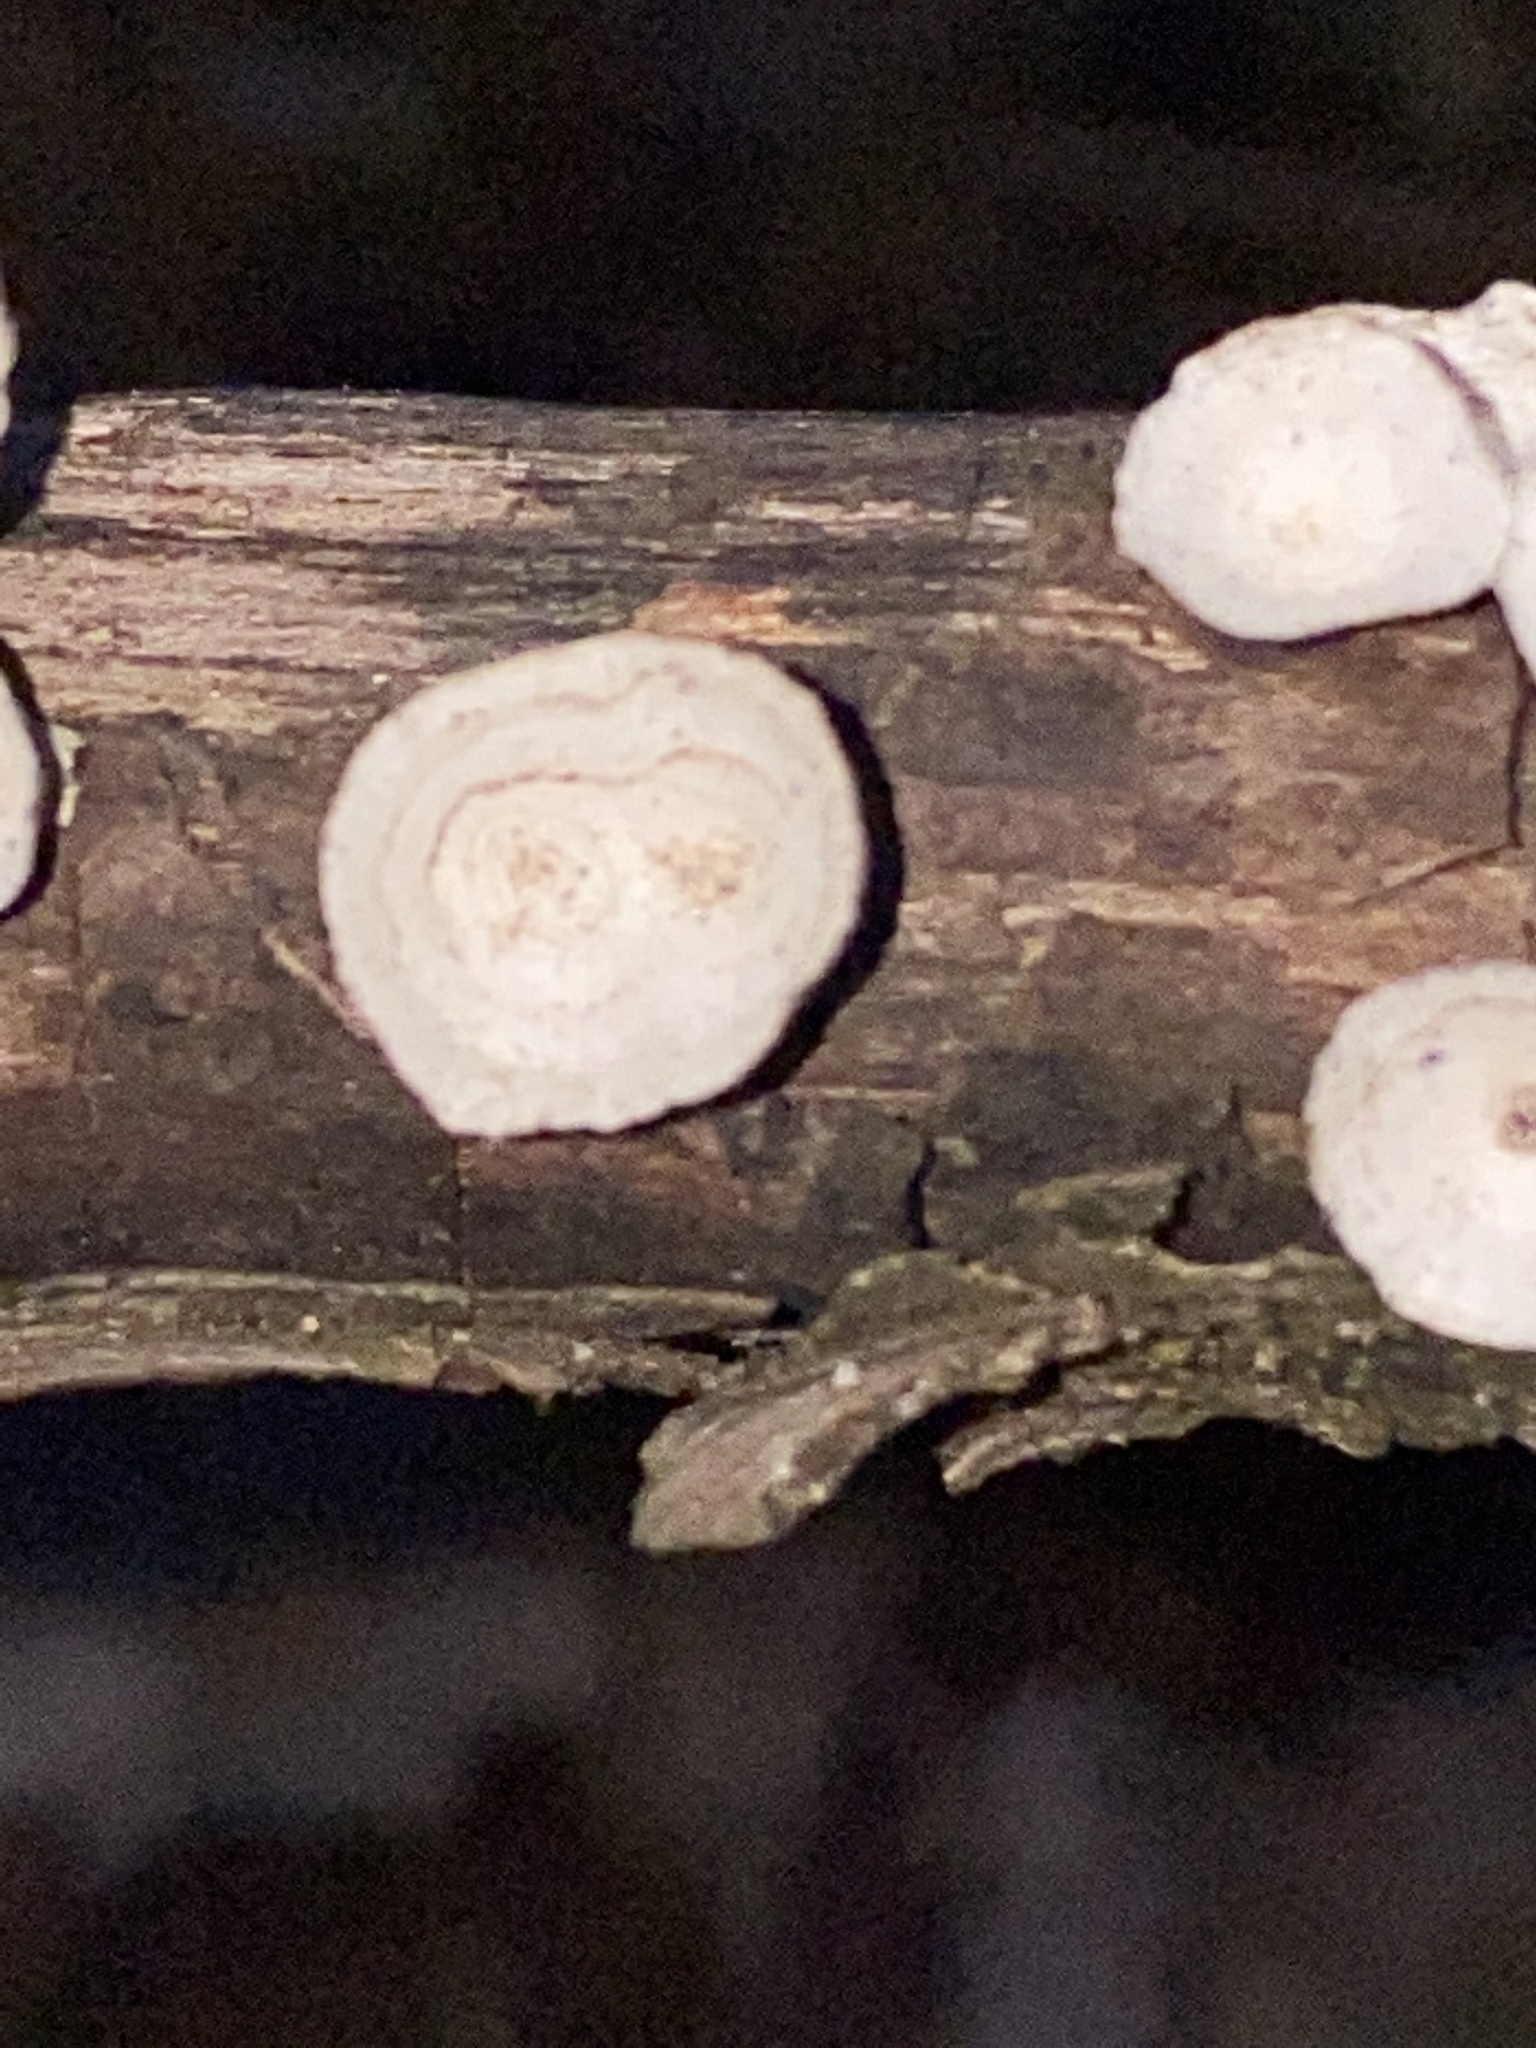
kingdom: Fungi
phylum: Basidiomycota
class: Agaricomycetes
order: Polyporales
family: Polyporaceae
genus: Poronidulus
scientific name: Poronidulus conchifer
